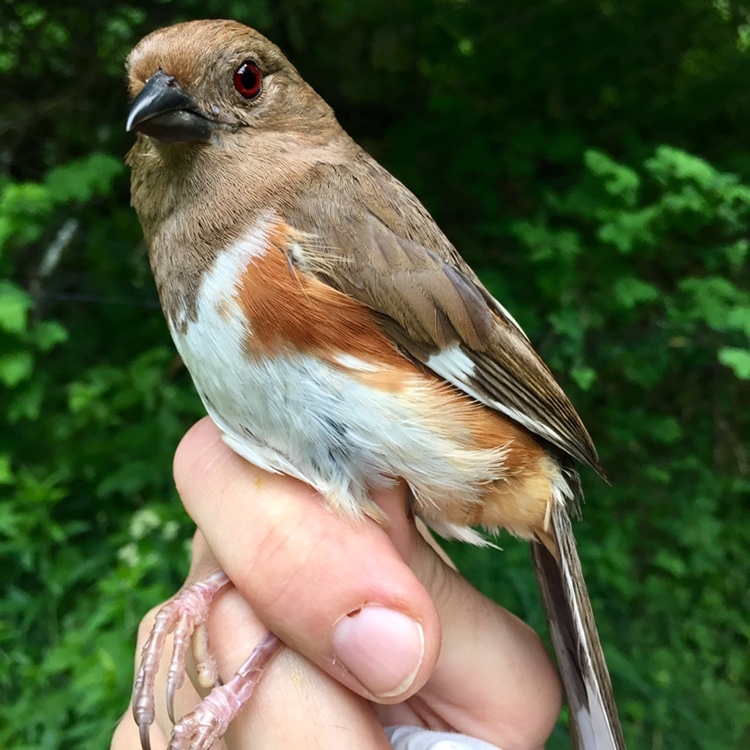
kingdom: Animalia
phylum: Chordata
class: Aves
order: Passeriformes
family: Passerellidae
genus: Pipilo
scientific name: Pipilo erythrophthalmus
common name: Eastern towhee
